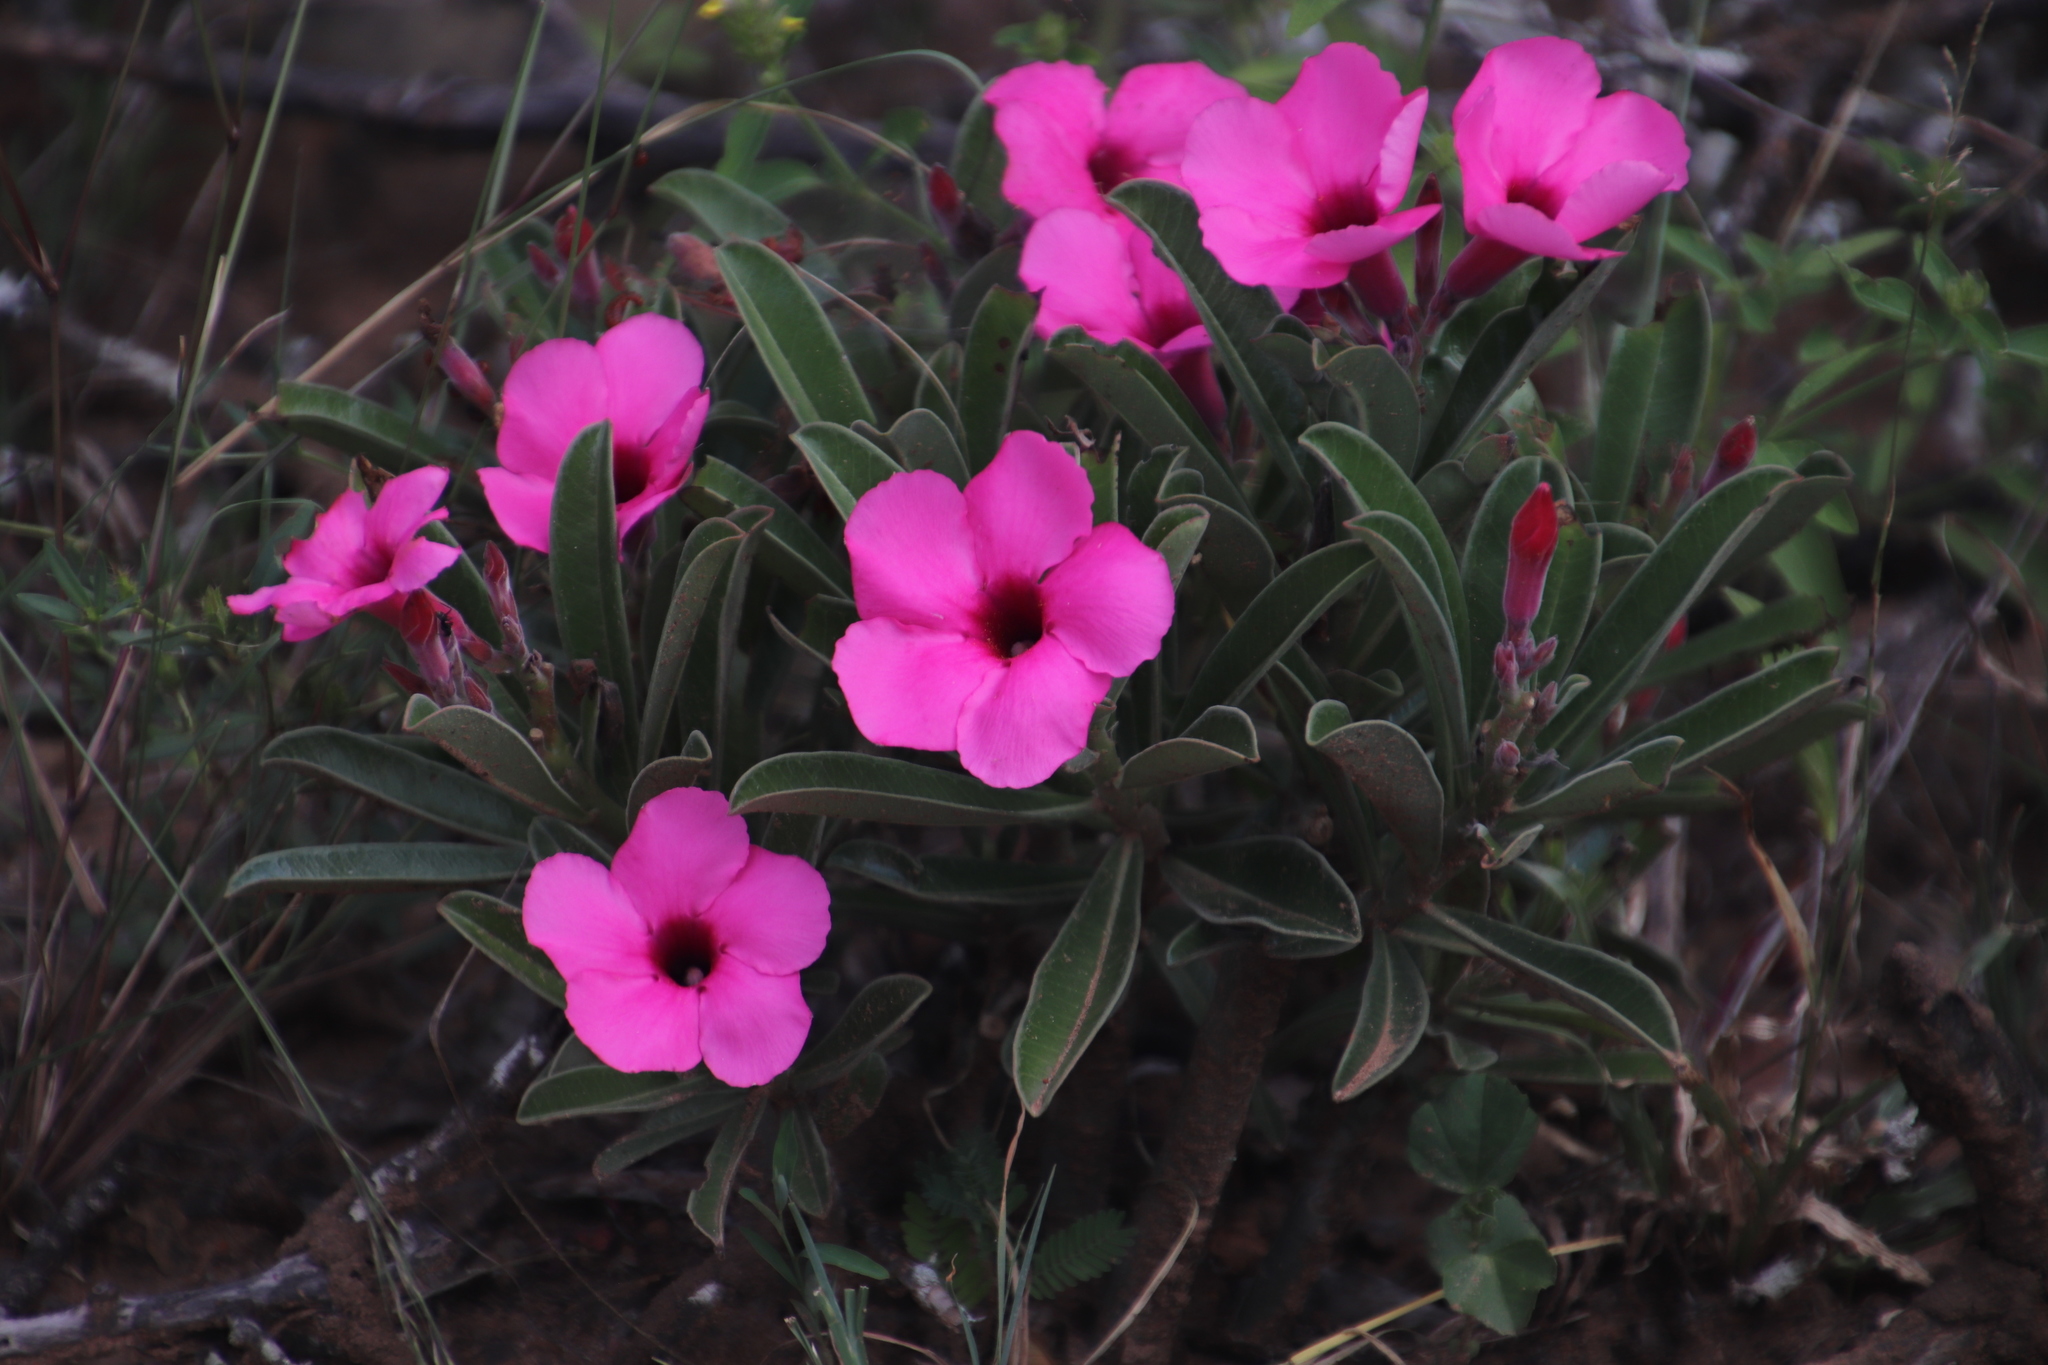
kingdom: Plantae
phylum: Tracheophyta
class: Magnoliopsida
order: Gentianales
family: Apocynaceae
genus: Adenium
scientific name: Adenium obesum
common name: Desert-rose
